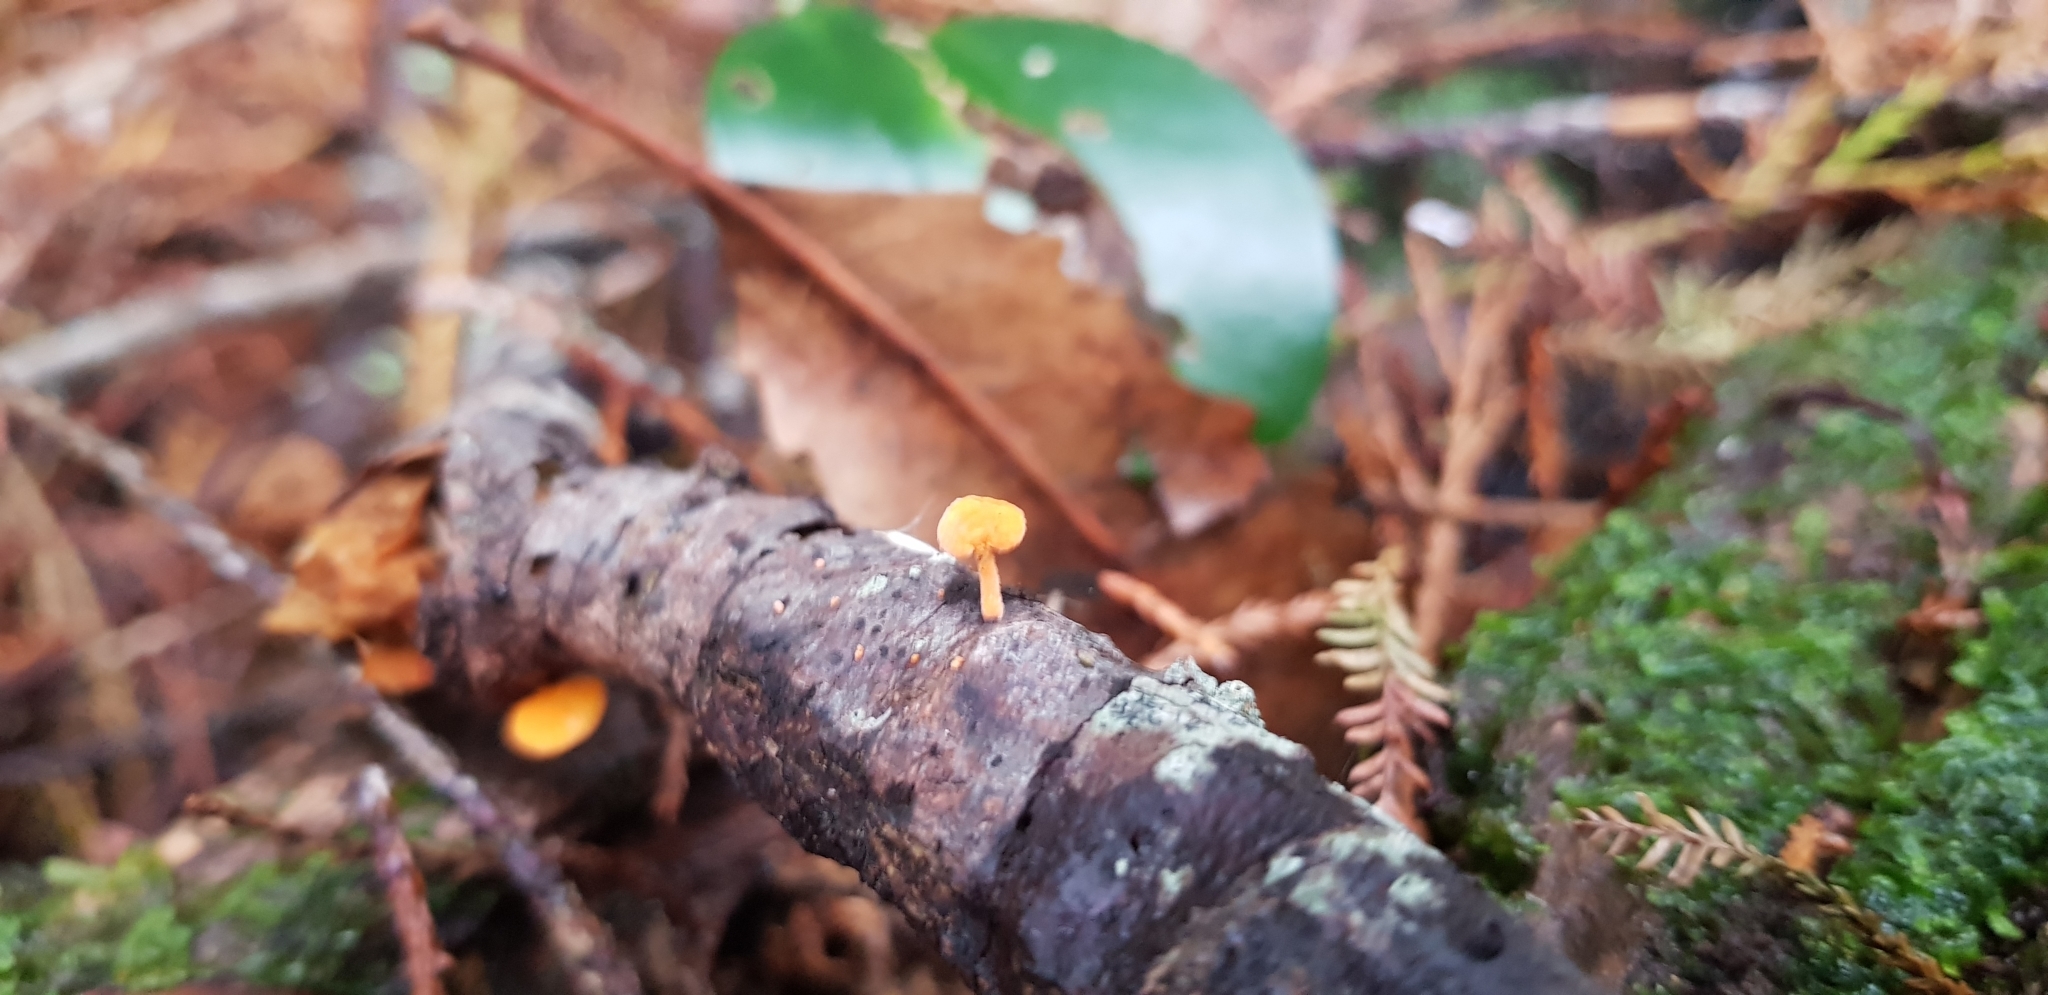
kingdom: Fungi
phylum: Basidiomycota
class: Agaricomycetes
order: Agaricales
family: Mycenaceae
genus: Favolaschia
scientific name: Favolaschia claudopus
